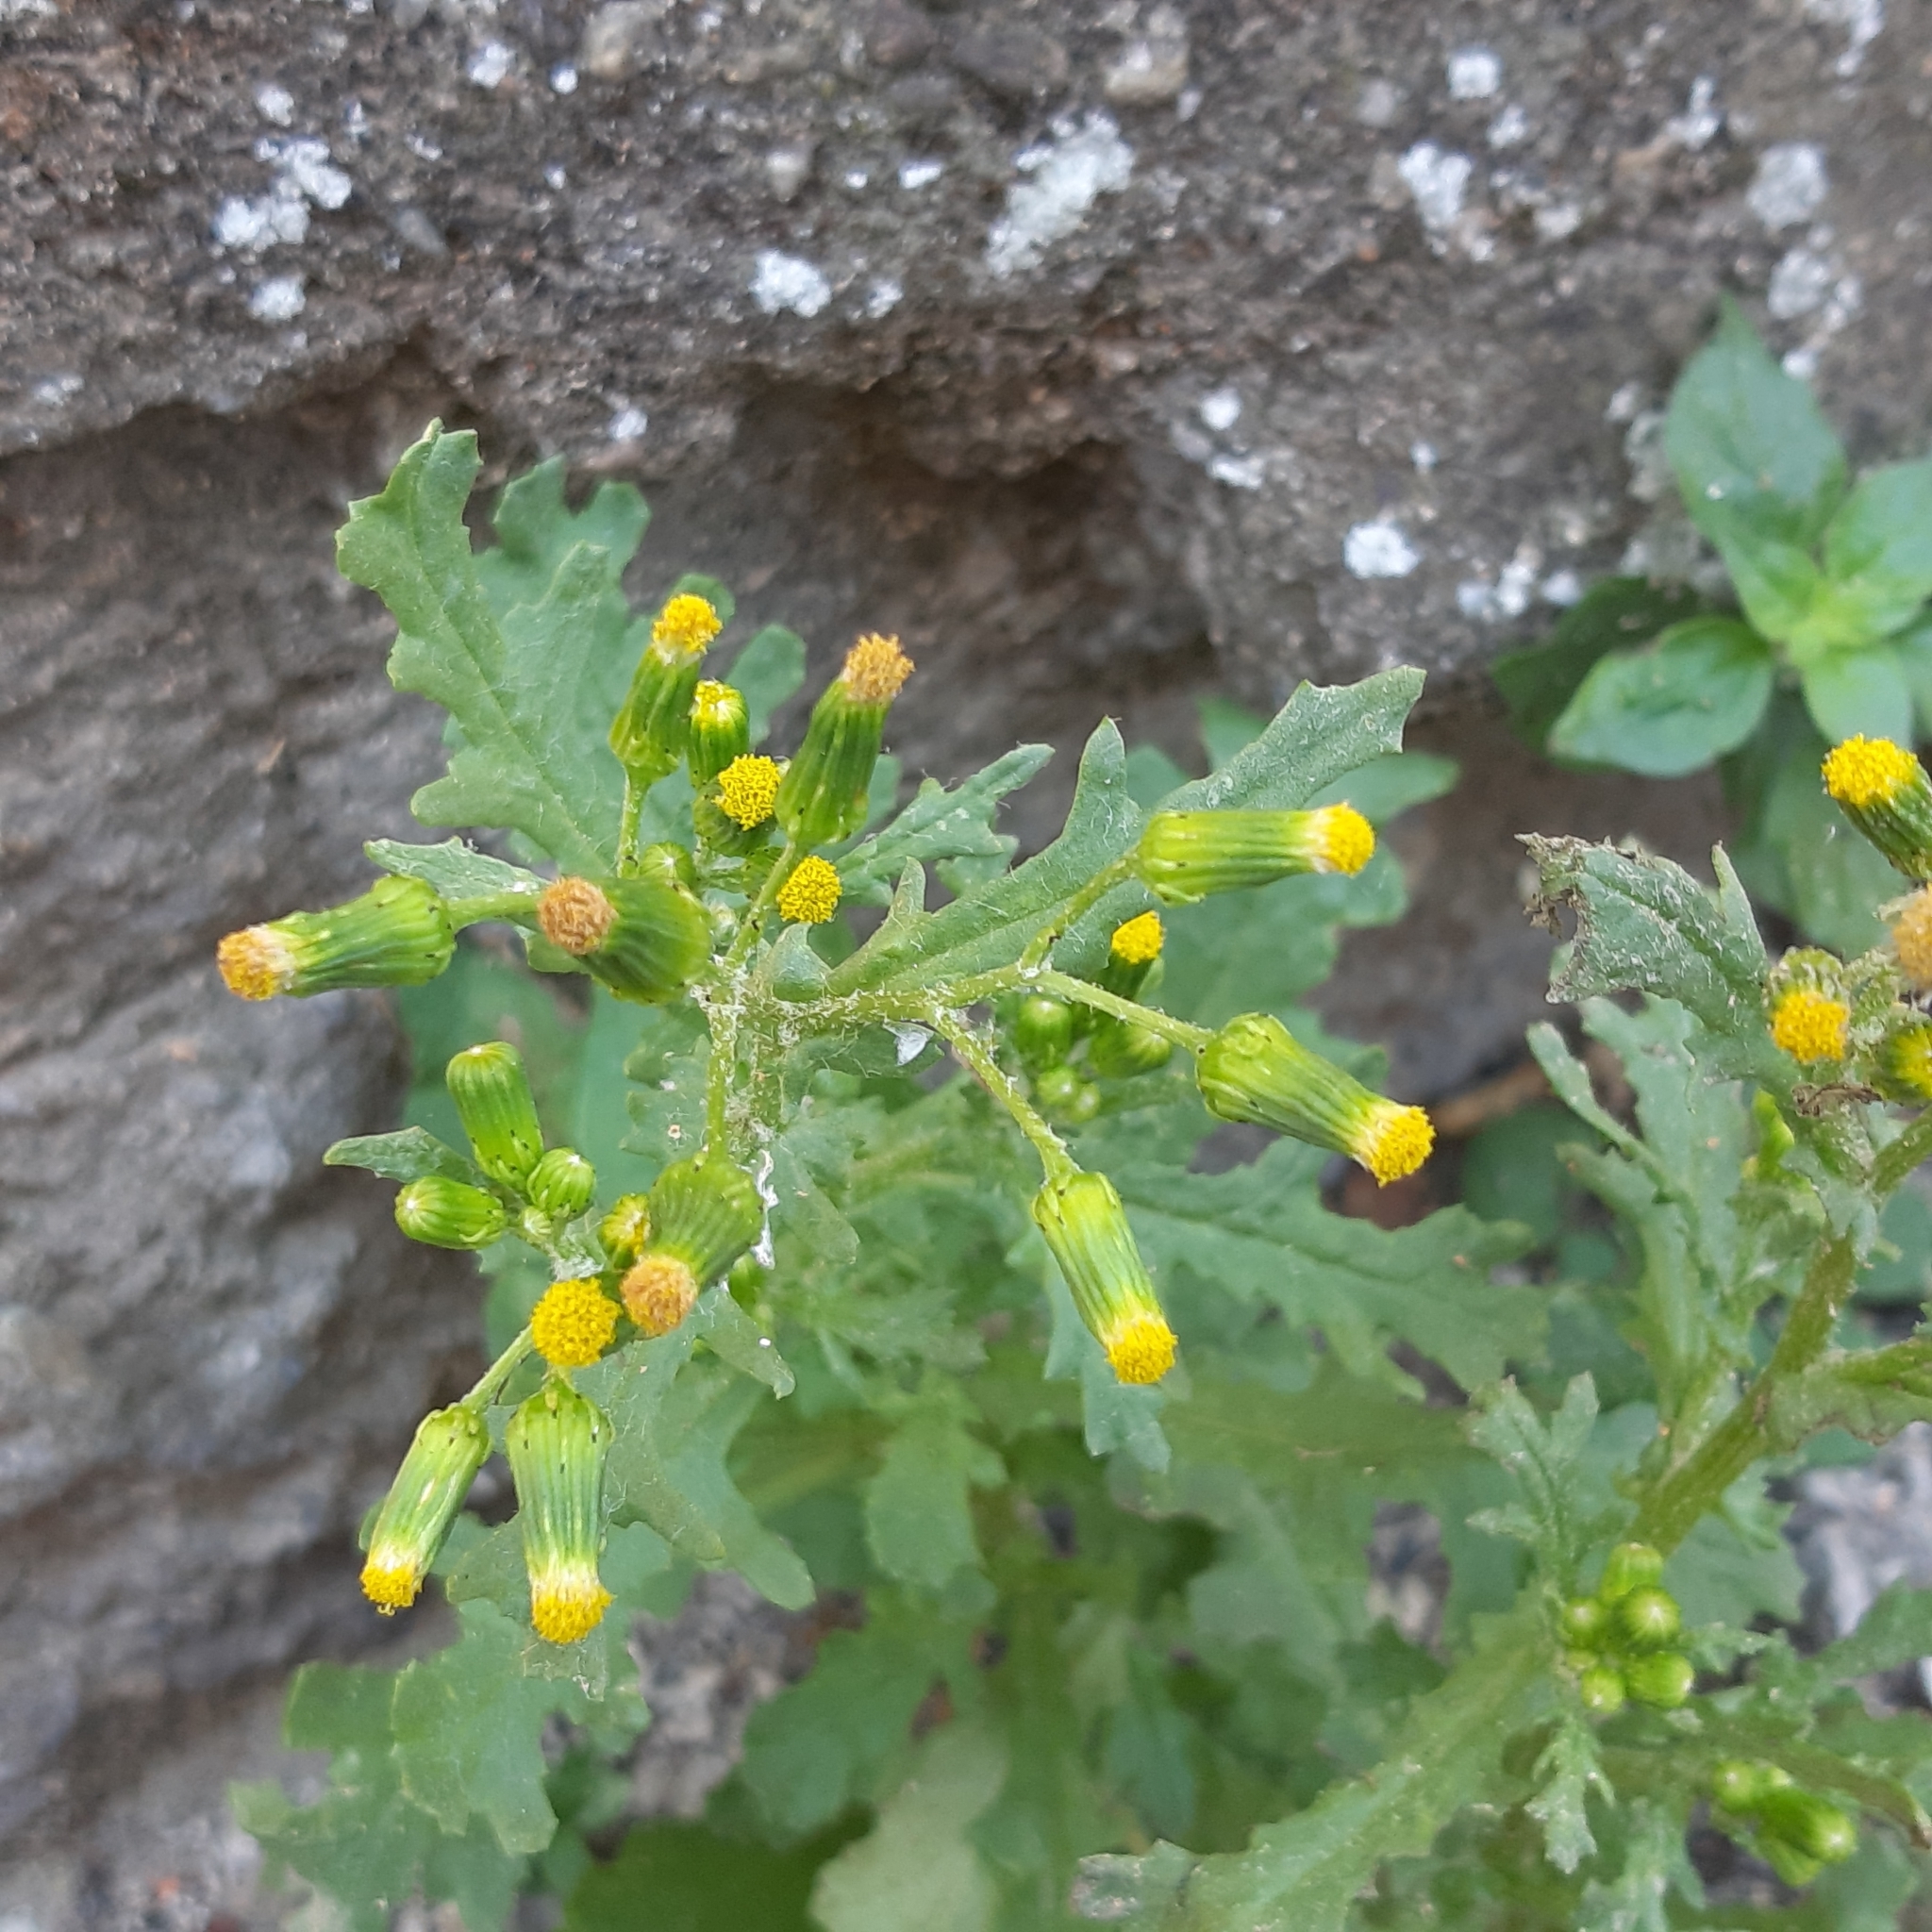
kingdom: Plantae
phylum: Tracheophyta
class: Magnoliopsida
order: Asterales
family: Asteraceae
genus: Senecio
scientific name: Senecio vulgaris
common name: Old-man-in-the-spring
